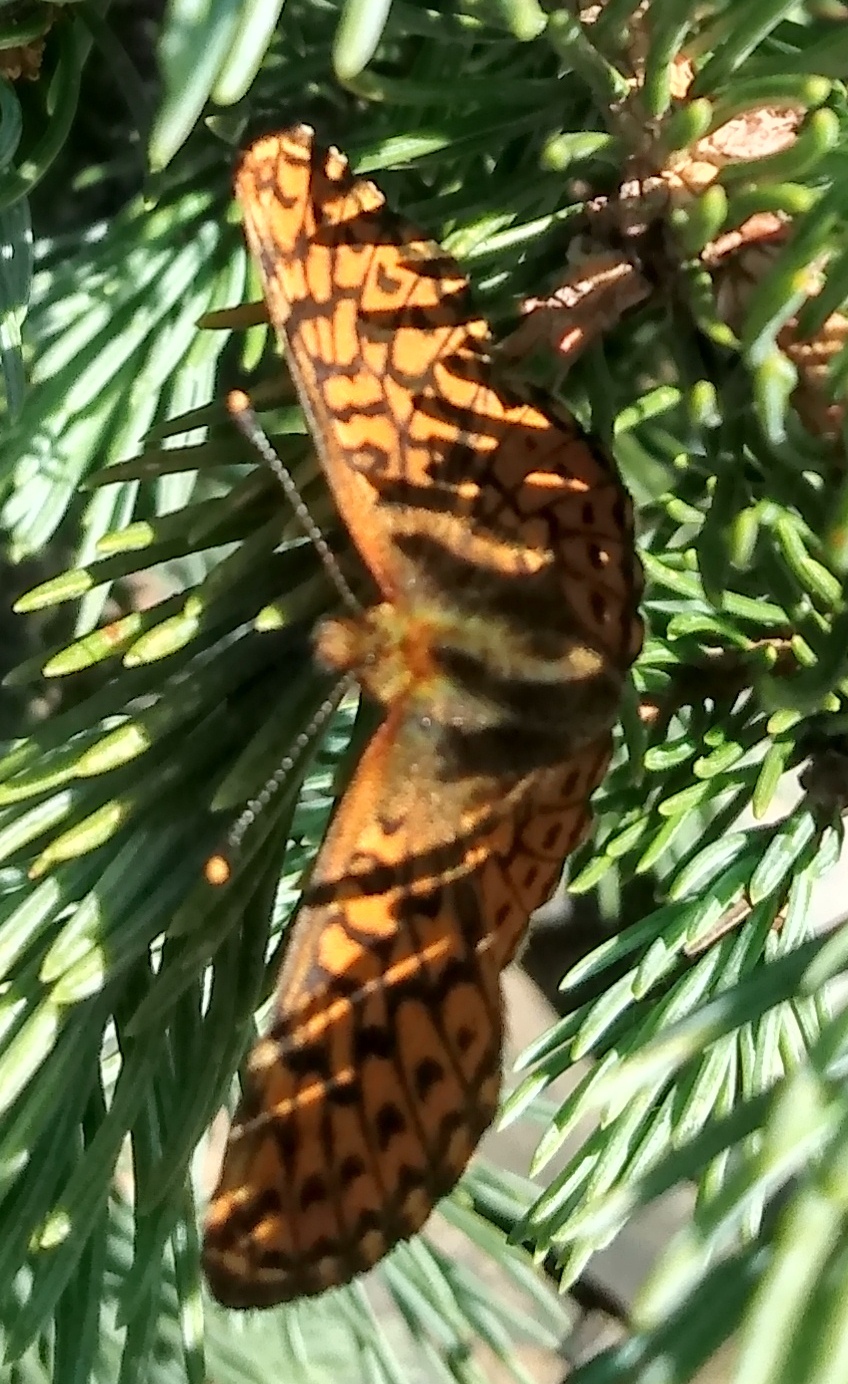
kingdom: Animalia
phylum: Arthropoda
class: Insecta
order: Lepidoptera
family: Nymphalidae
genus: Boloria
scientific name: Boloria chariclea
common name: Arctic fritillary
